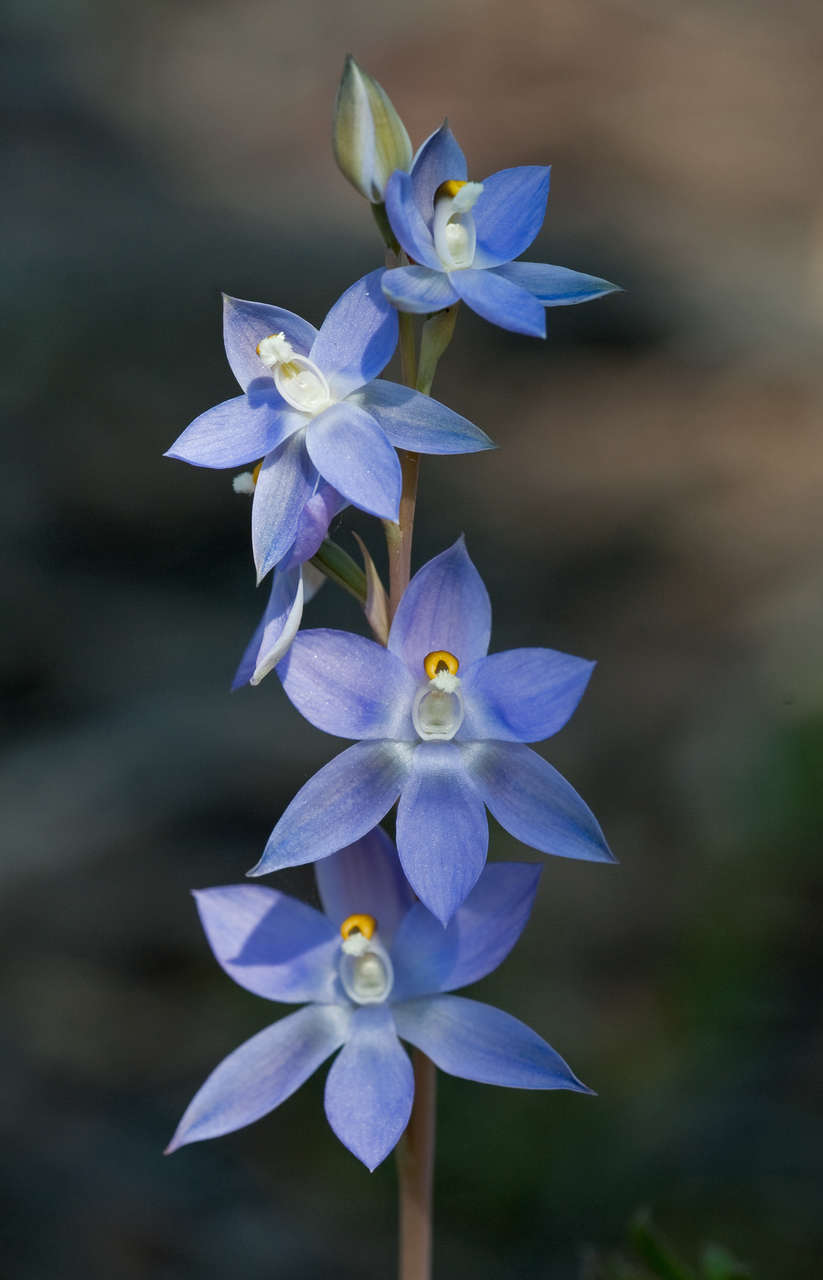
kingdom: Plantae
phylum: Tracheophyta
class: Liliopsida
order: Asparagales
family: Orchidaceae
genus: Thelymitra
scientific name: Thelymitra nuda
